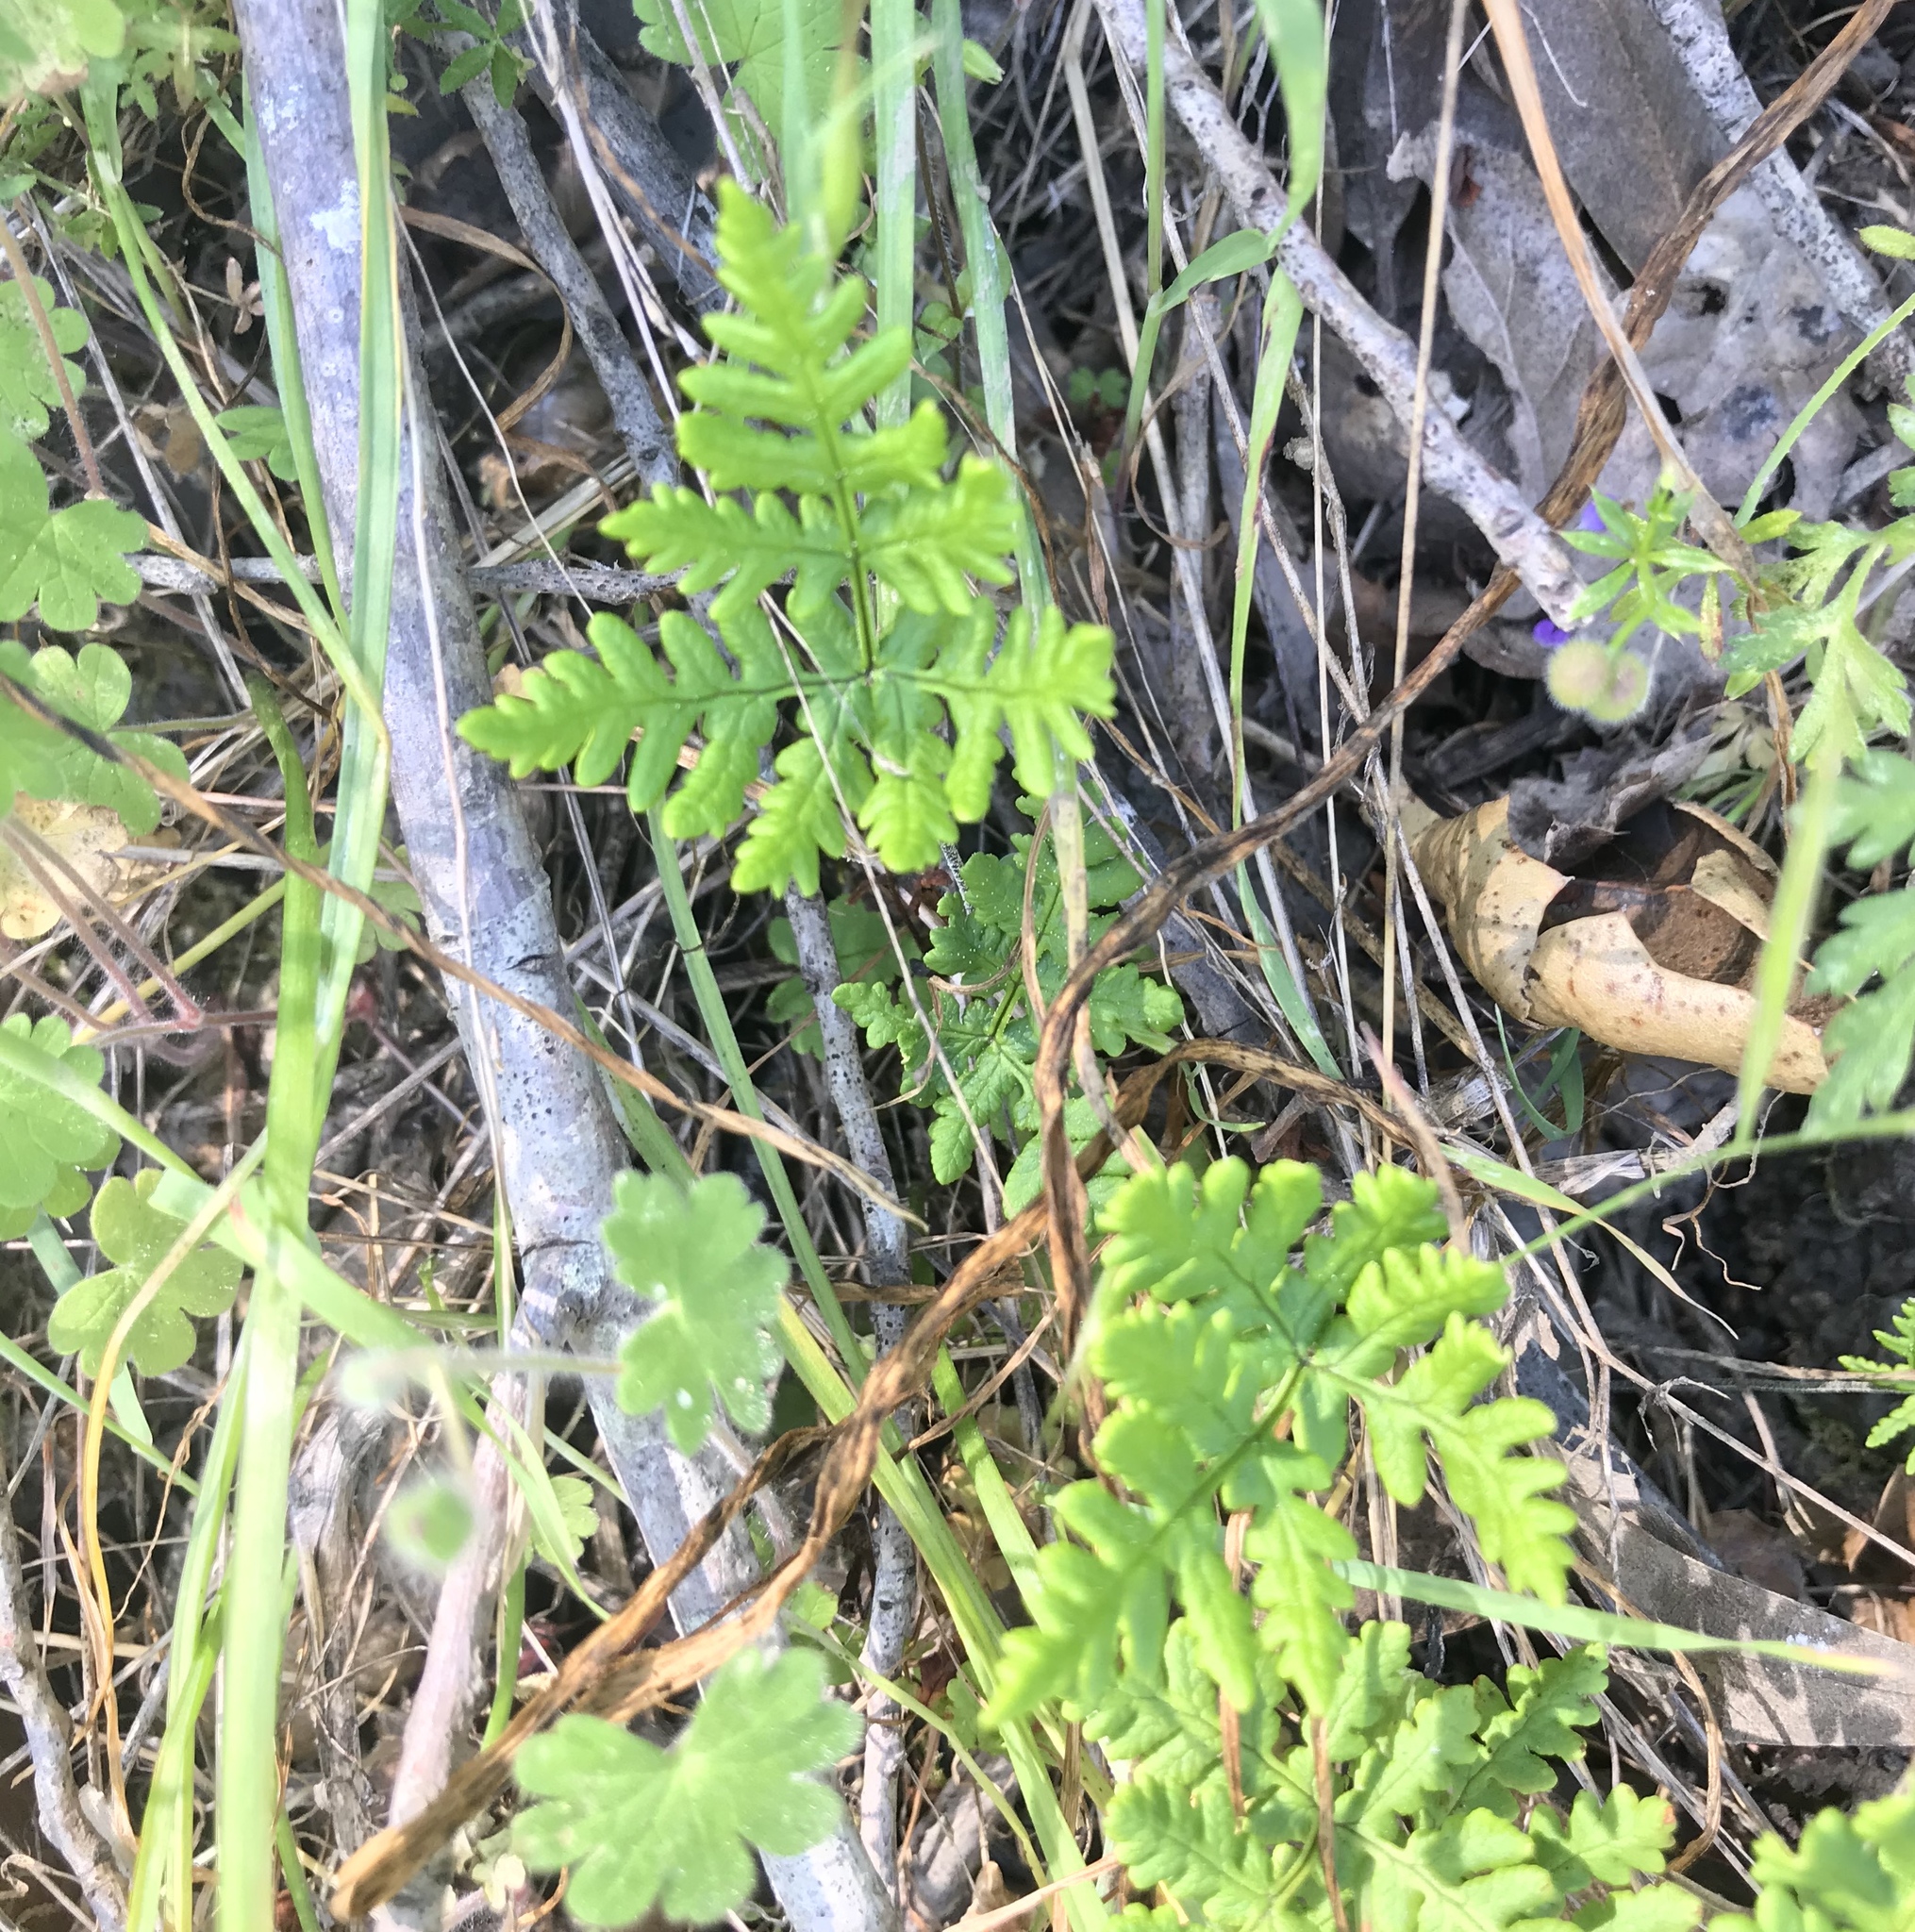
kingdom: Plantae
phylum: Tracheophyta
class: Polypodiopsida
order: Polypodiales
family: Pteridaceae
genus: Pentagramma
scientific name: Pentagramma triangularis
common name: Gold fern
